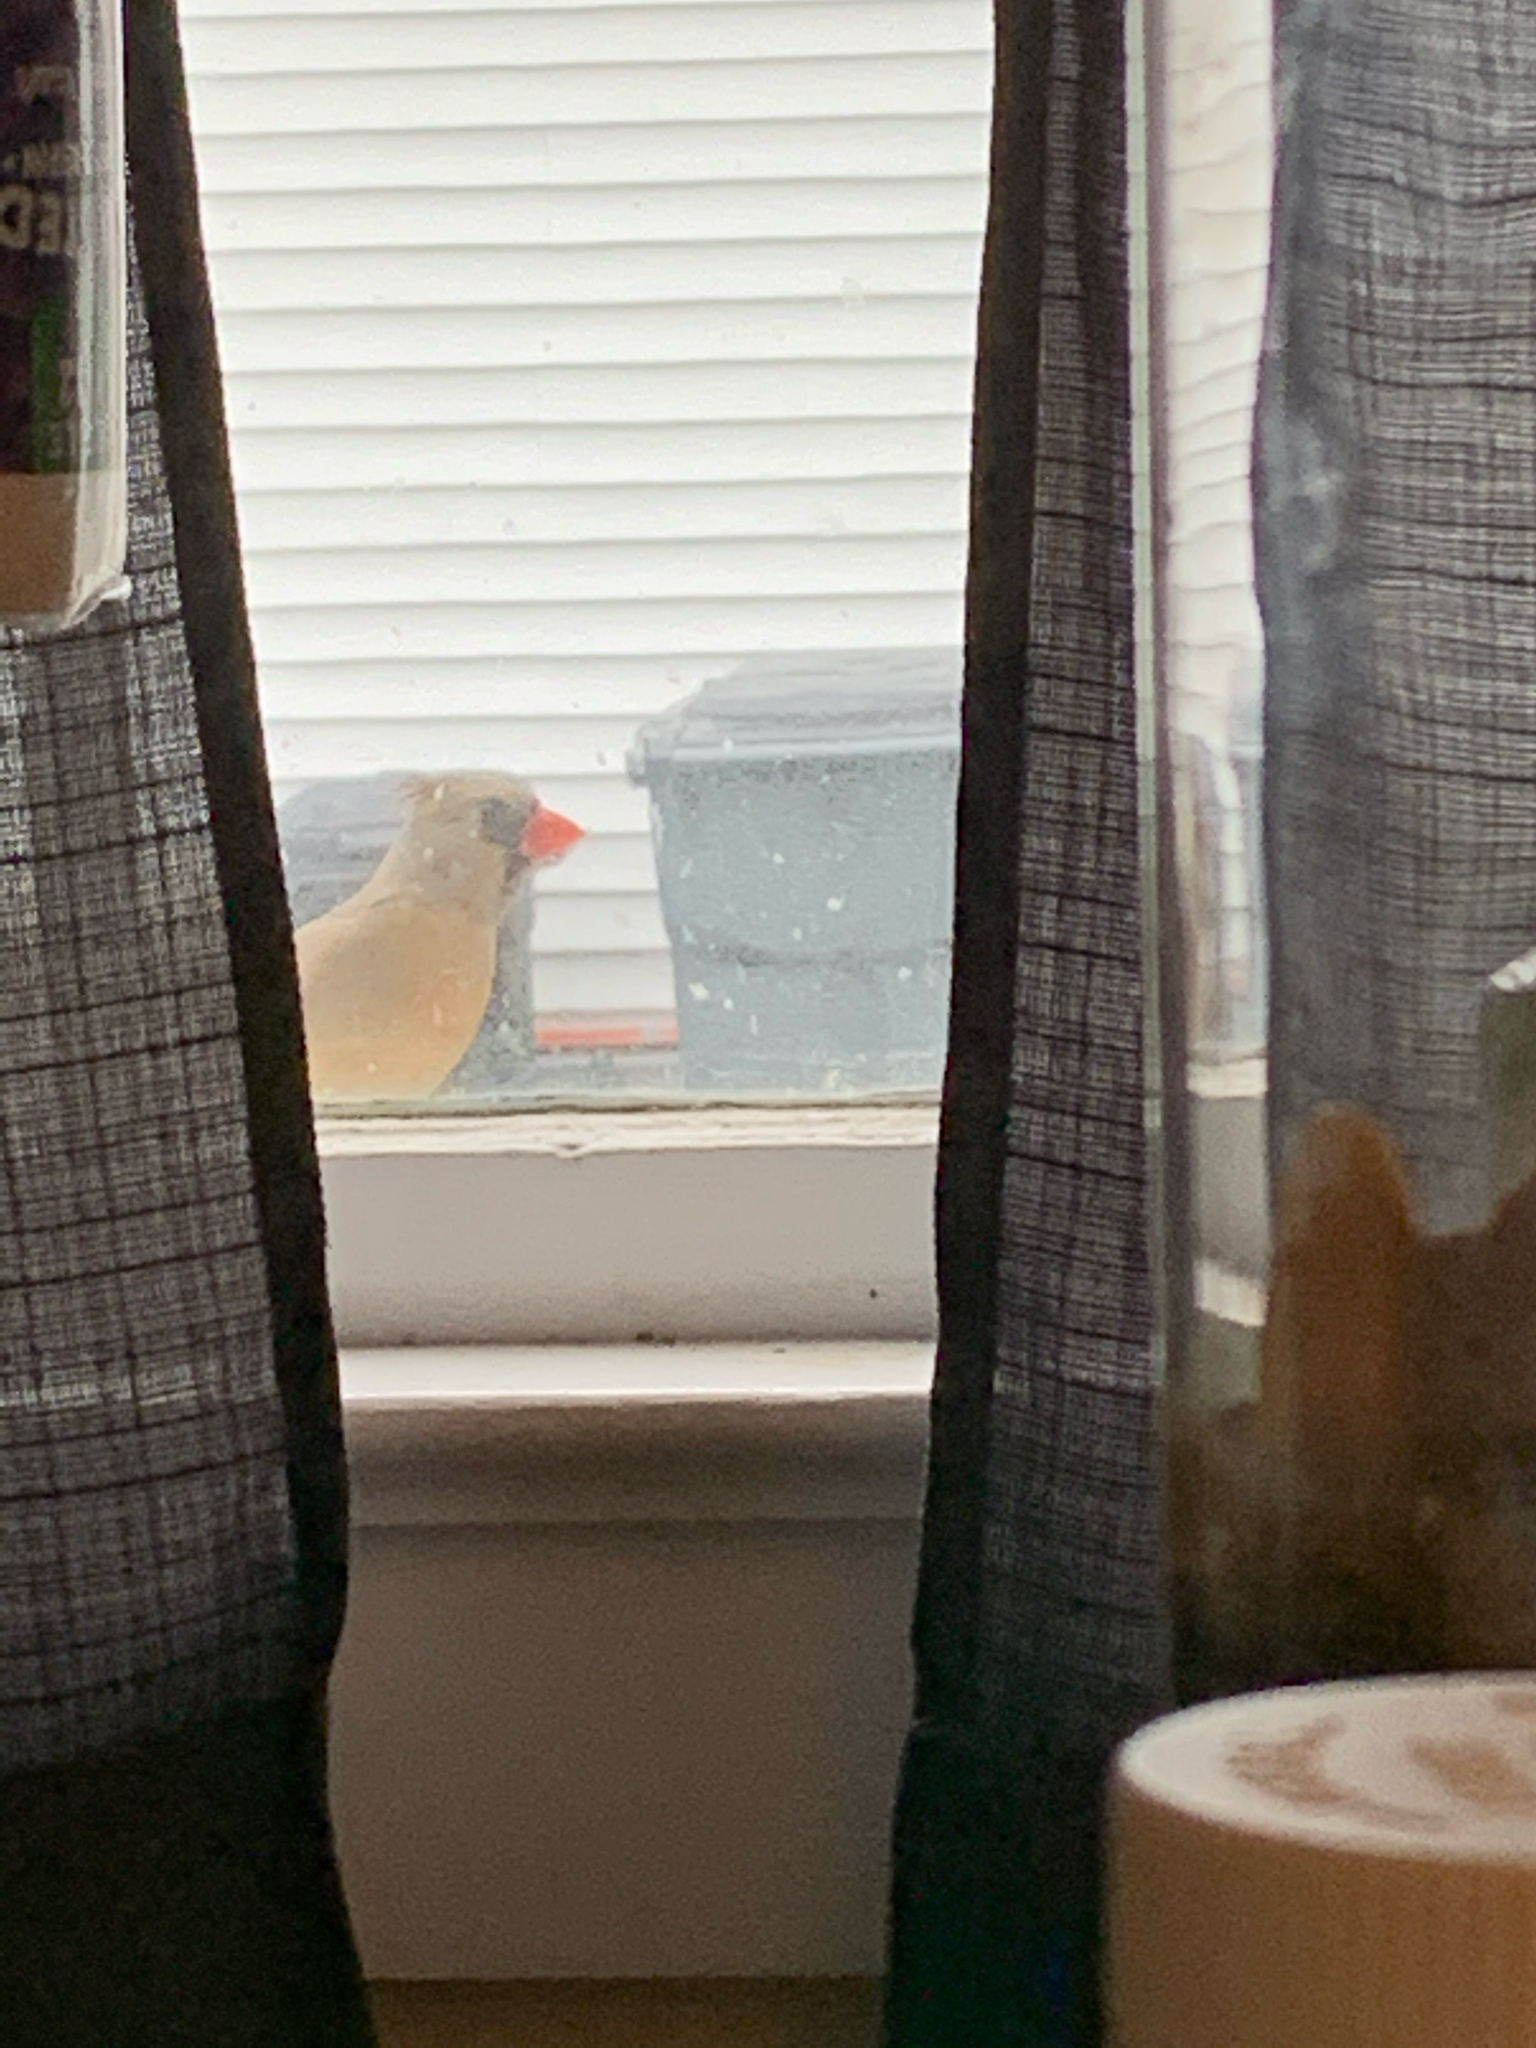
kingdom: Animalia
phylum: Chordata
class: Aves
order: Passeriformes
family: Cardinalidae
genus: Cardinalis
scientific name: Cardinalis cardinalis
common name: Northern cardinal
